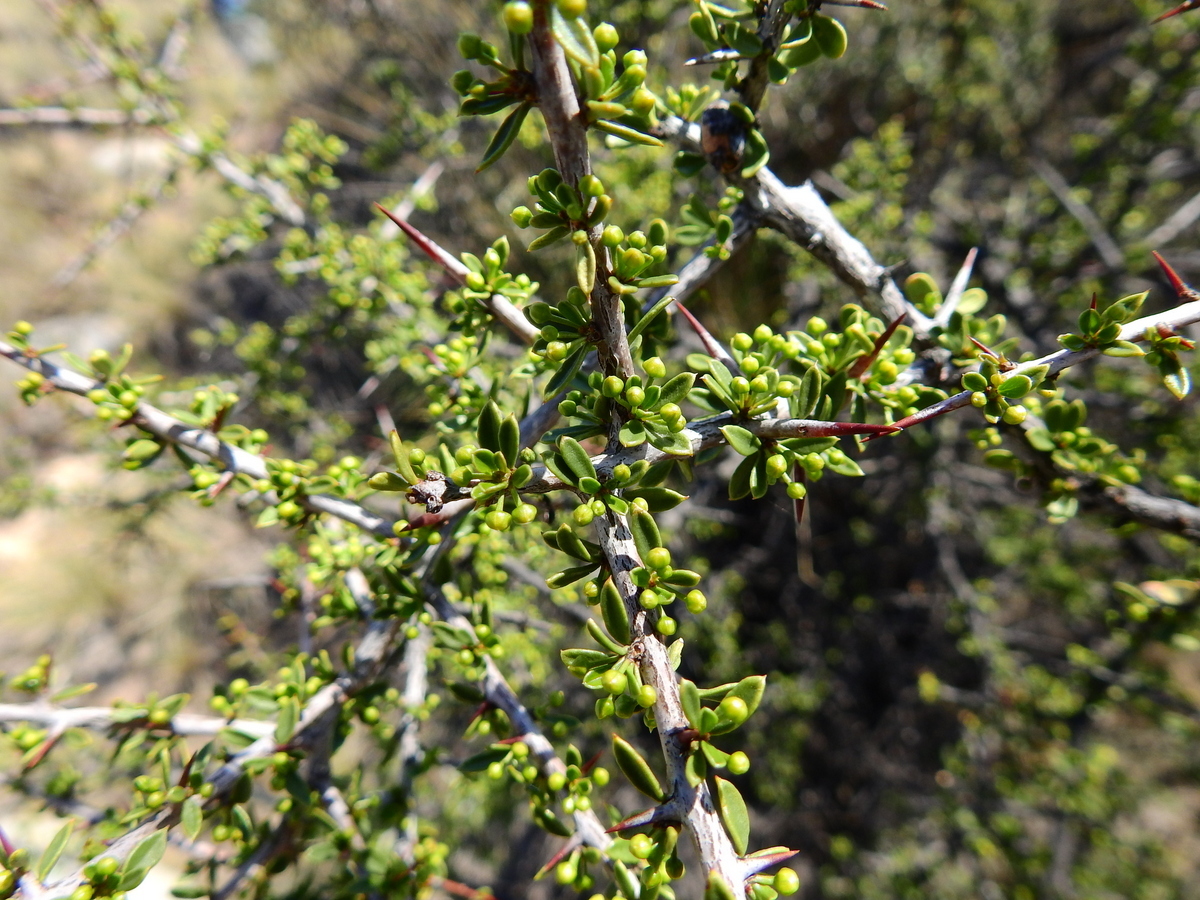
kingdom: Plantae
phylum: Tracheophyta
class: Magnoliopsida
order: Rosales
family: Rhamnaceae
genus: Condalia
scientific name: Condalia microphylla
